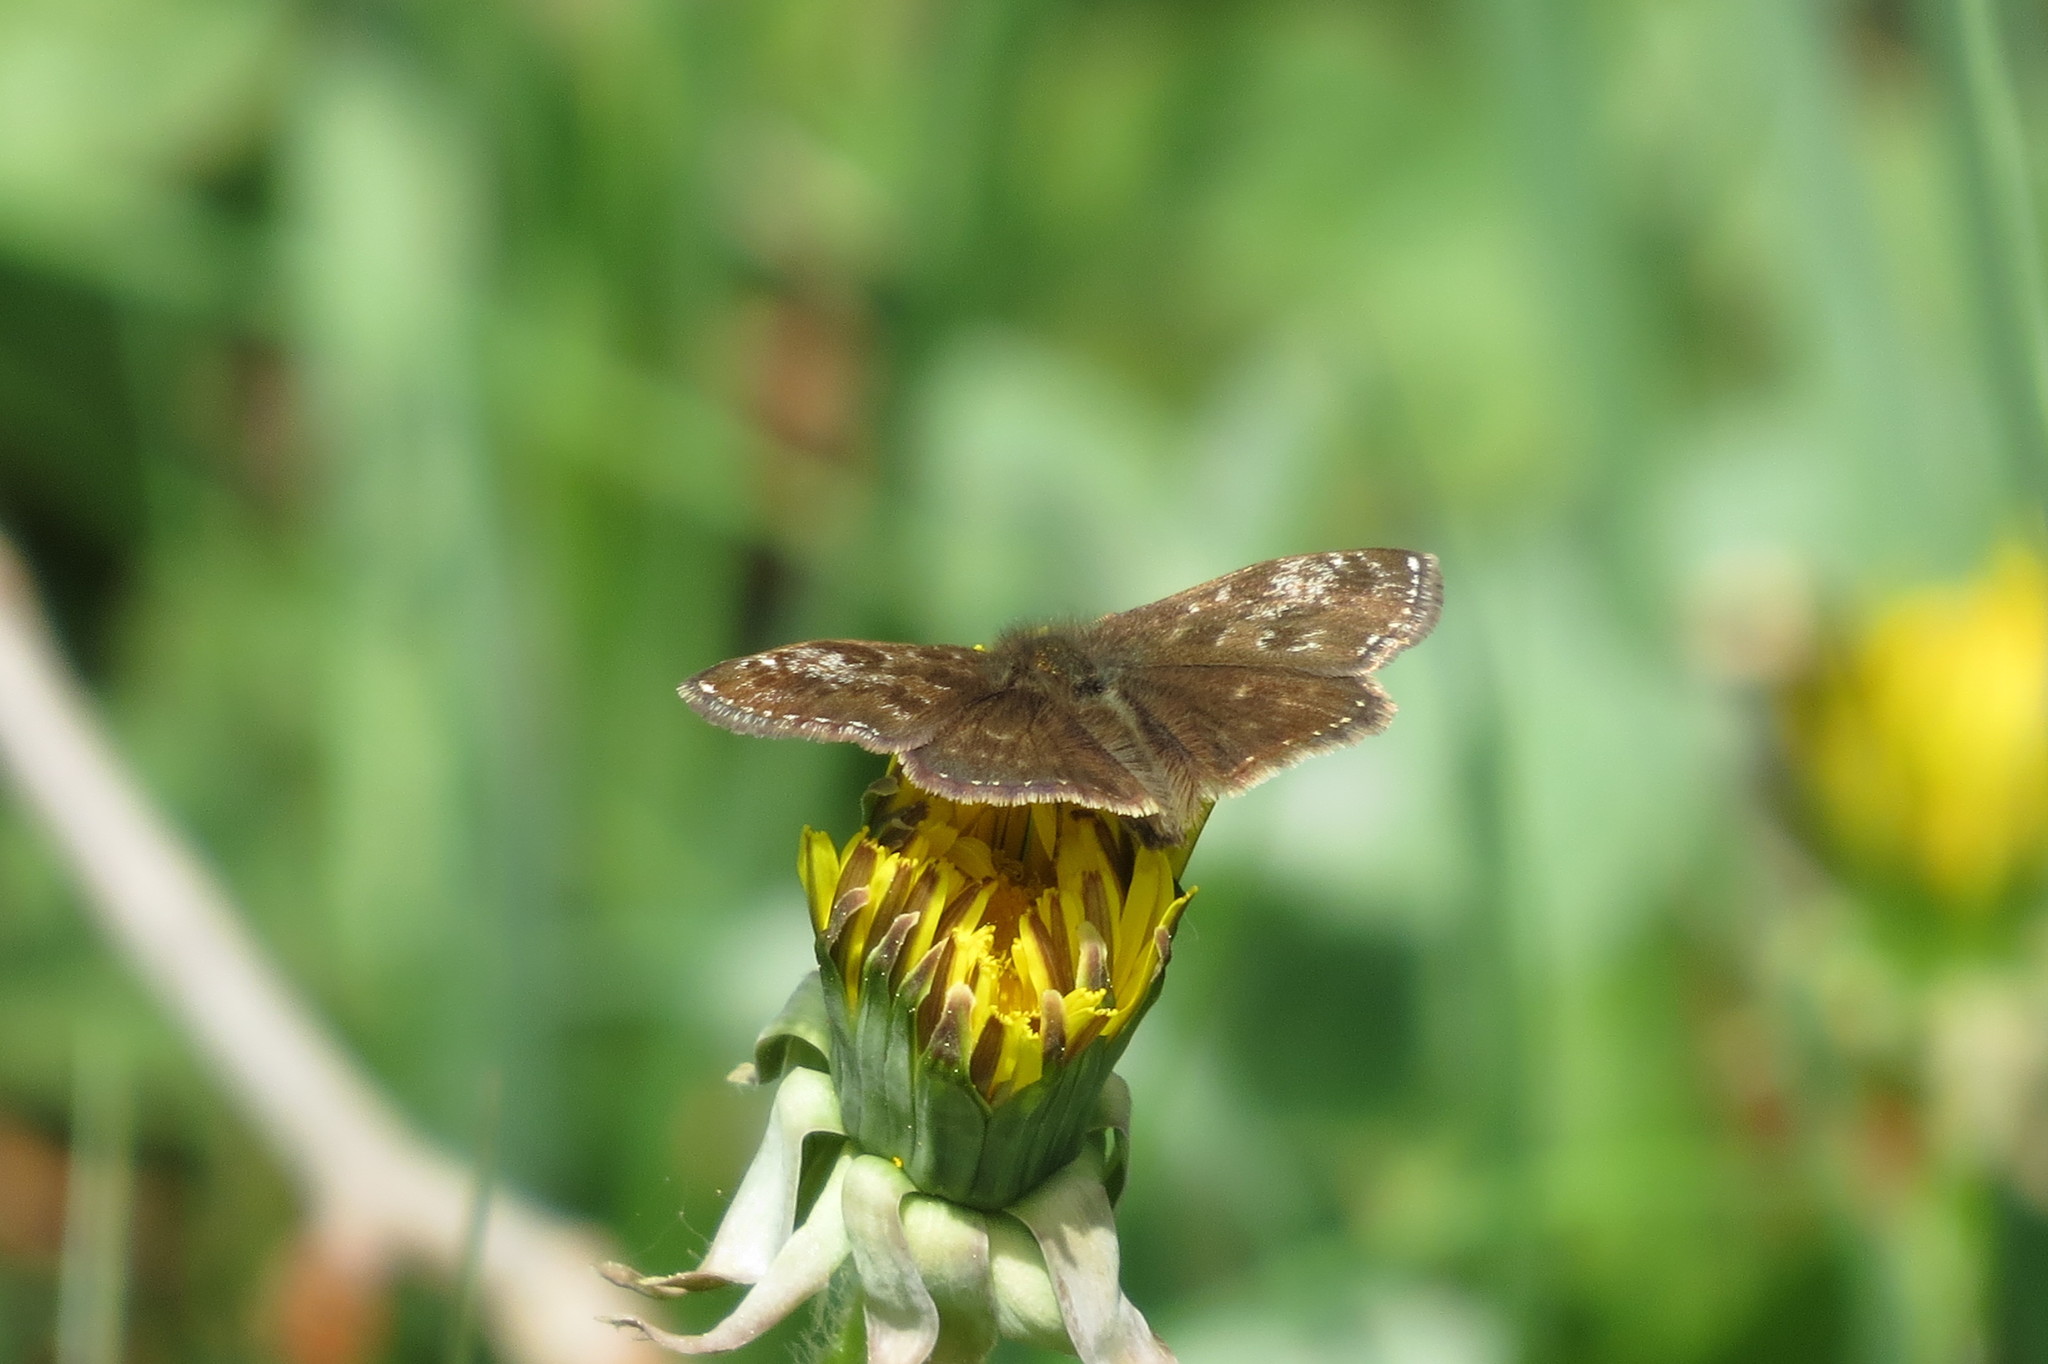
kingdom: Animalia
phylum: Arthropoda
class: Insecta
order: Lepidoptera
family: Hesperiidae
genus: Erynnis
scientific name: Erynnis tages
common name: Dingy skipper
